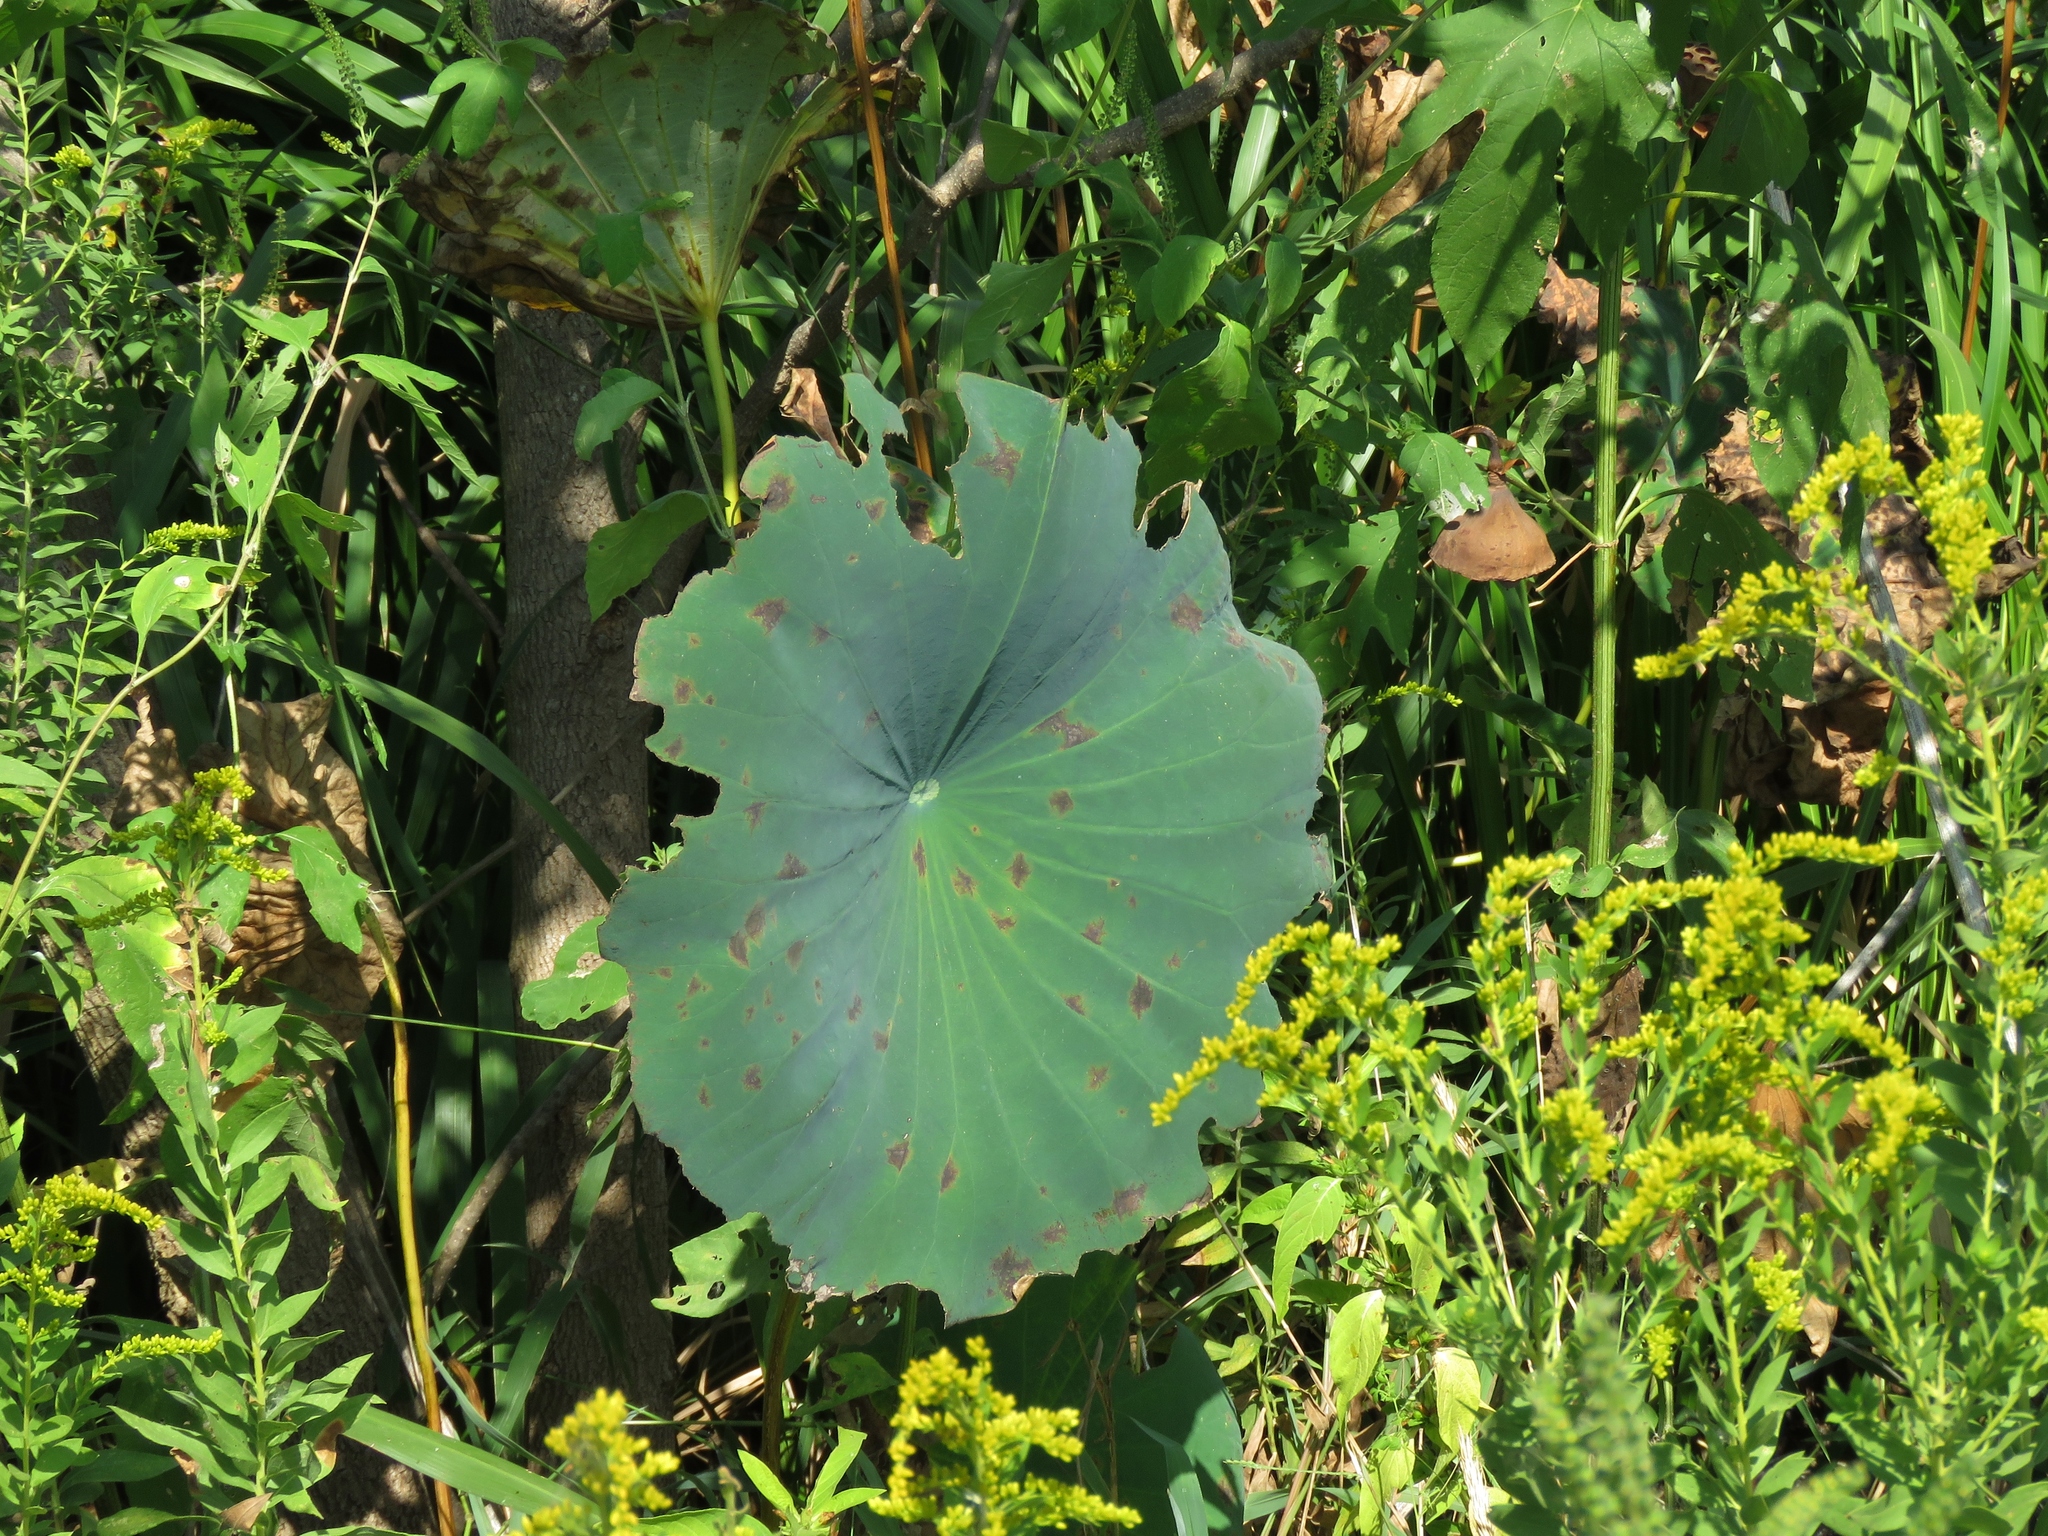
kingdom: Plantae
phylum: Tracheophyta
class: Magnoliopsida
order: Proteales
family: Nelumbonaceae
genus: Nelumbo
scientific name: Nelumbo lutea
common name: American lotus
